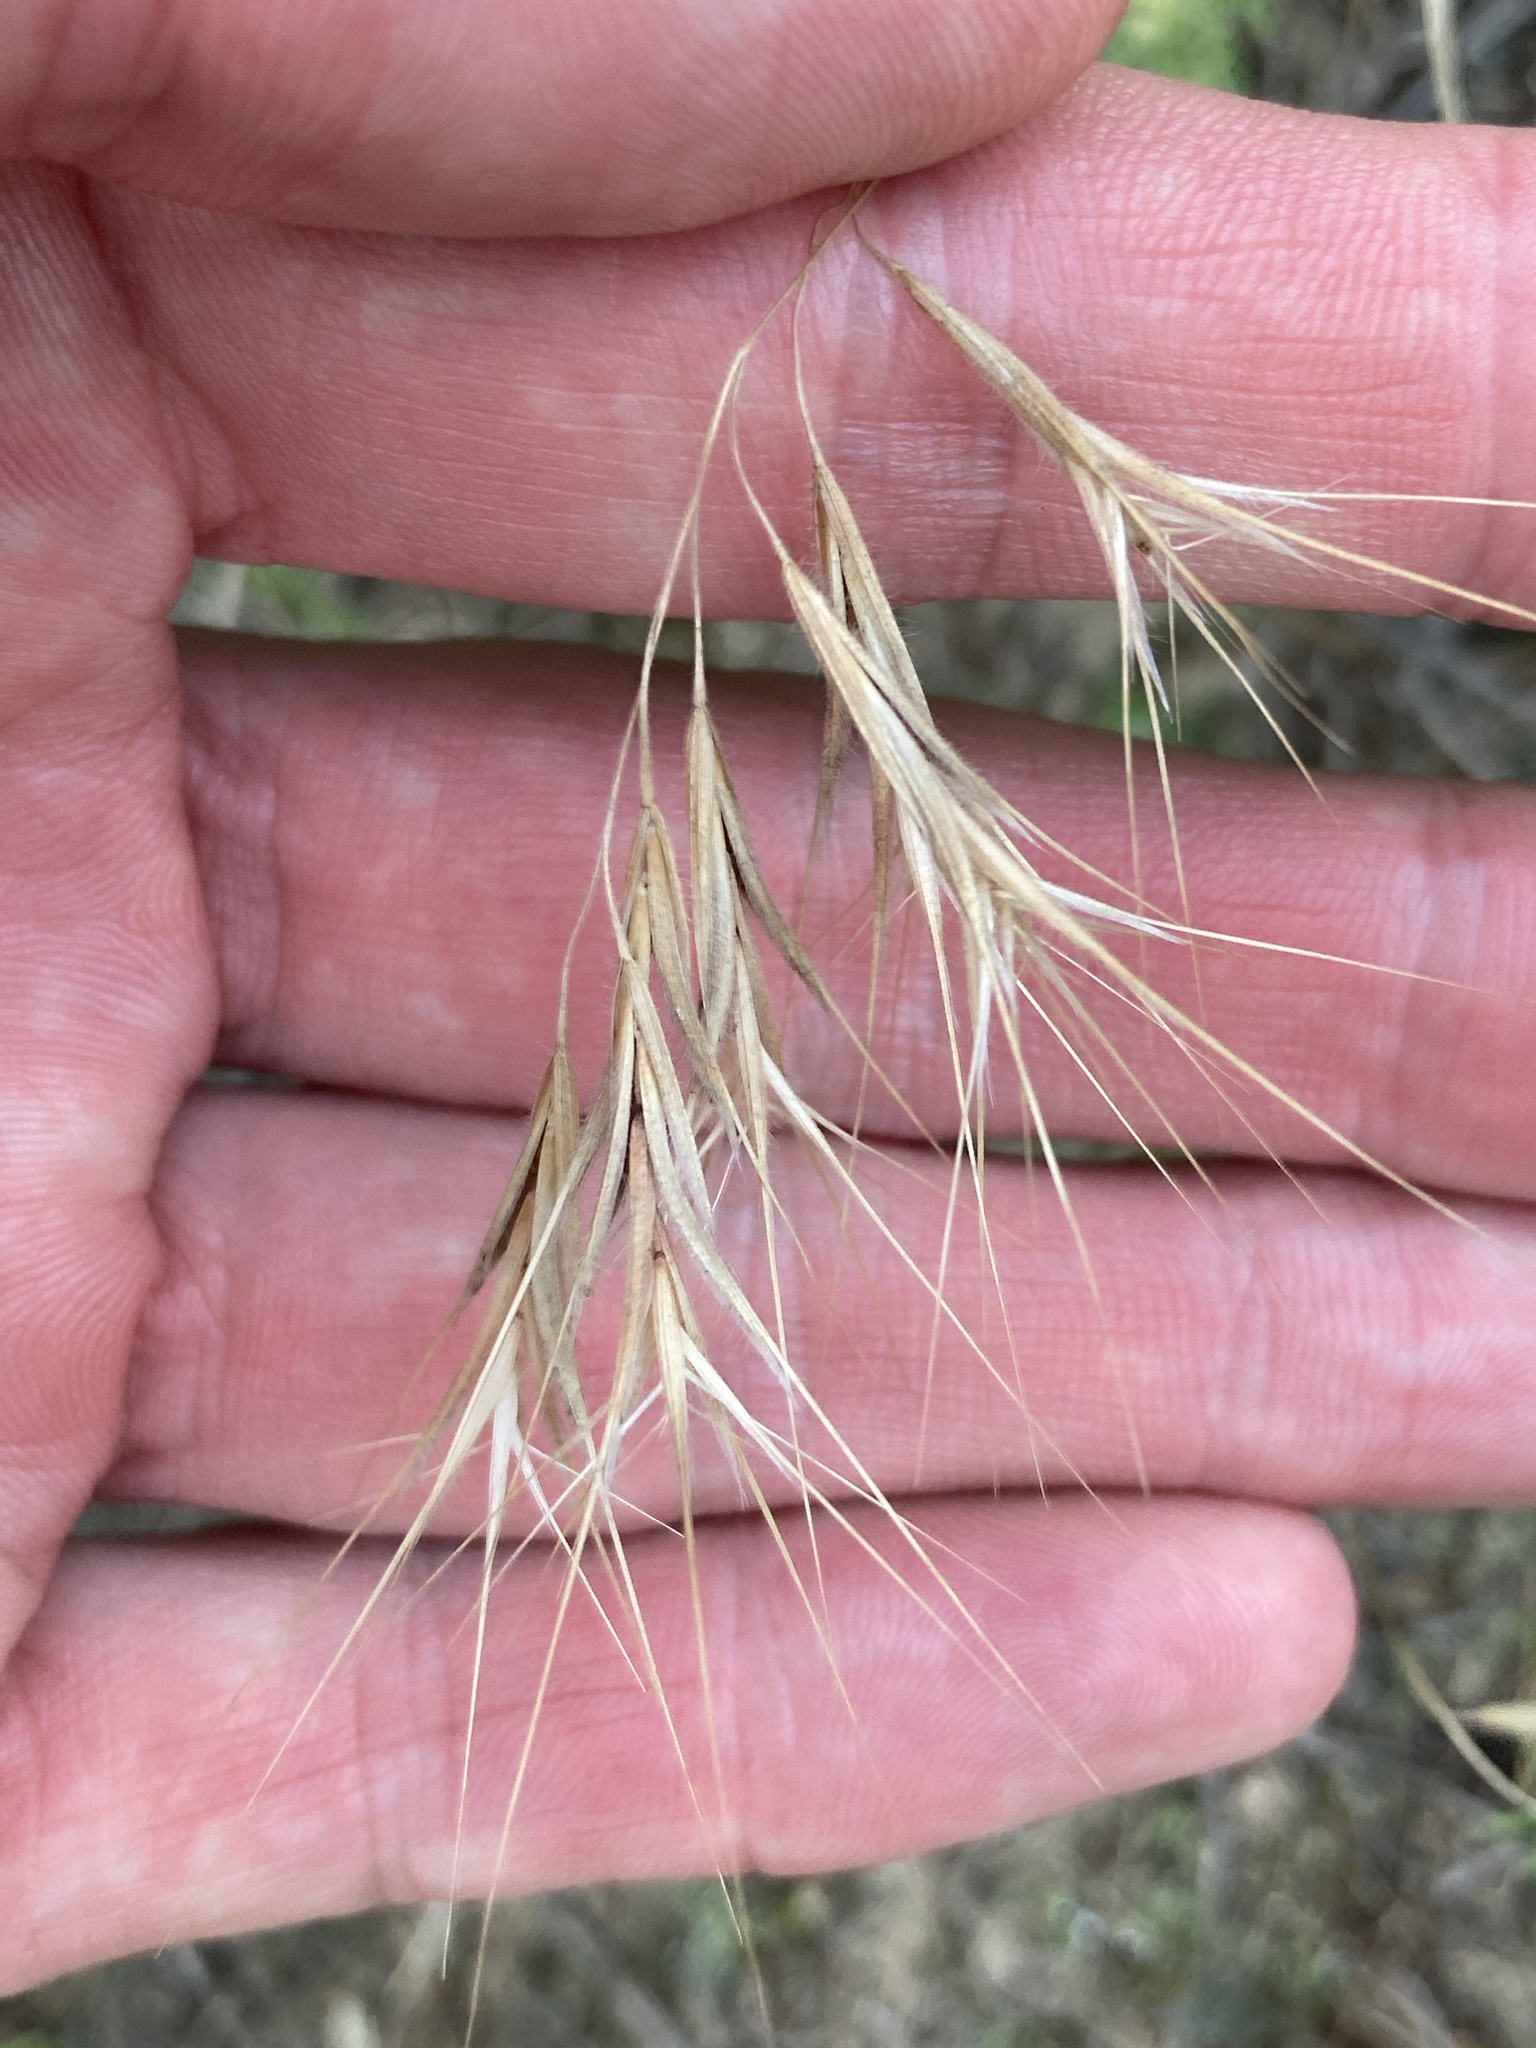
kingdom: Plantae
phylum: Tracheophyta
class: Liliopsida
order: Poales
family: Poaceae
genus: Bromus
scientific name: Bromus tectorum
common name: Cheatgrass
